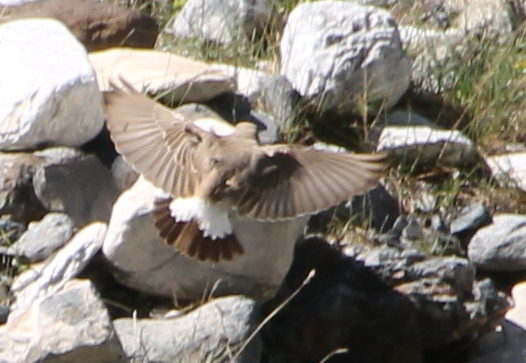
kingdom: Animalia
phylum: Chordata
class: Aves
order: Passeriformes
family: Muscicapidae
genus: Oenanthe
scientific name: Oenanthe isabellina
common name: Isabelline wheatear
